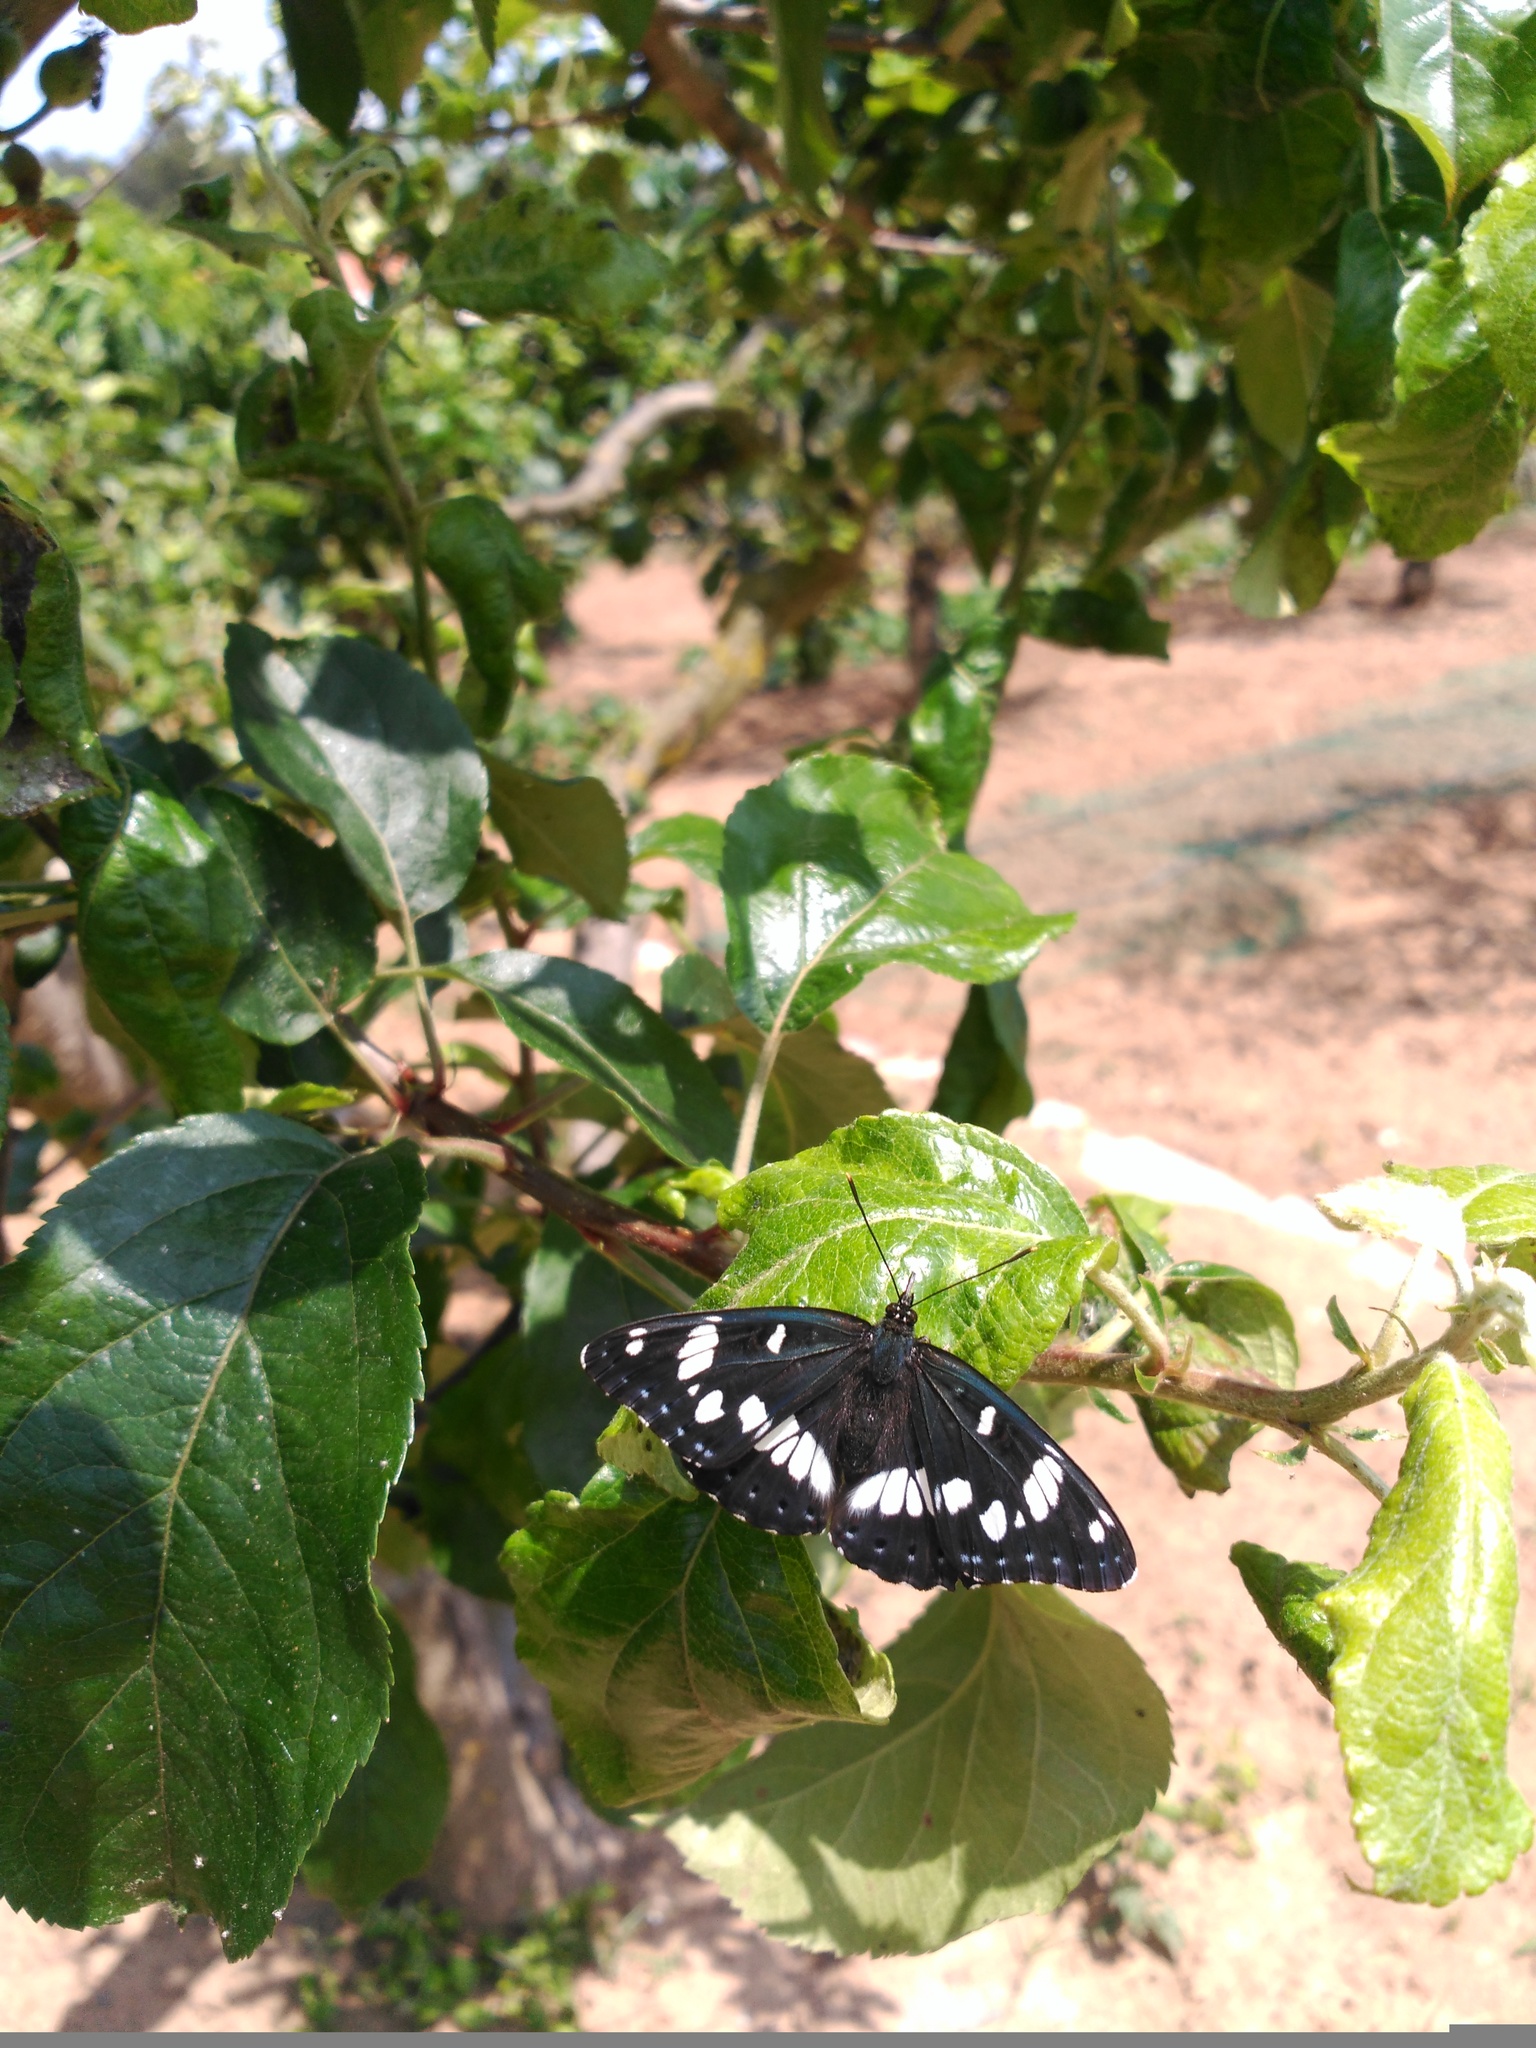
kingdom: Animalia
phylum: Arthropoda
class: Insecta
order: Lepidoptera
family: Nymphalidae
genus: Limenitis
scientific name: Limenitis reducta
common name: Southern white admiral
